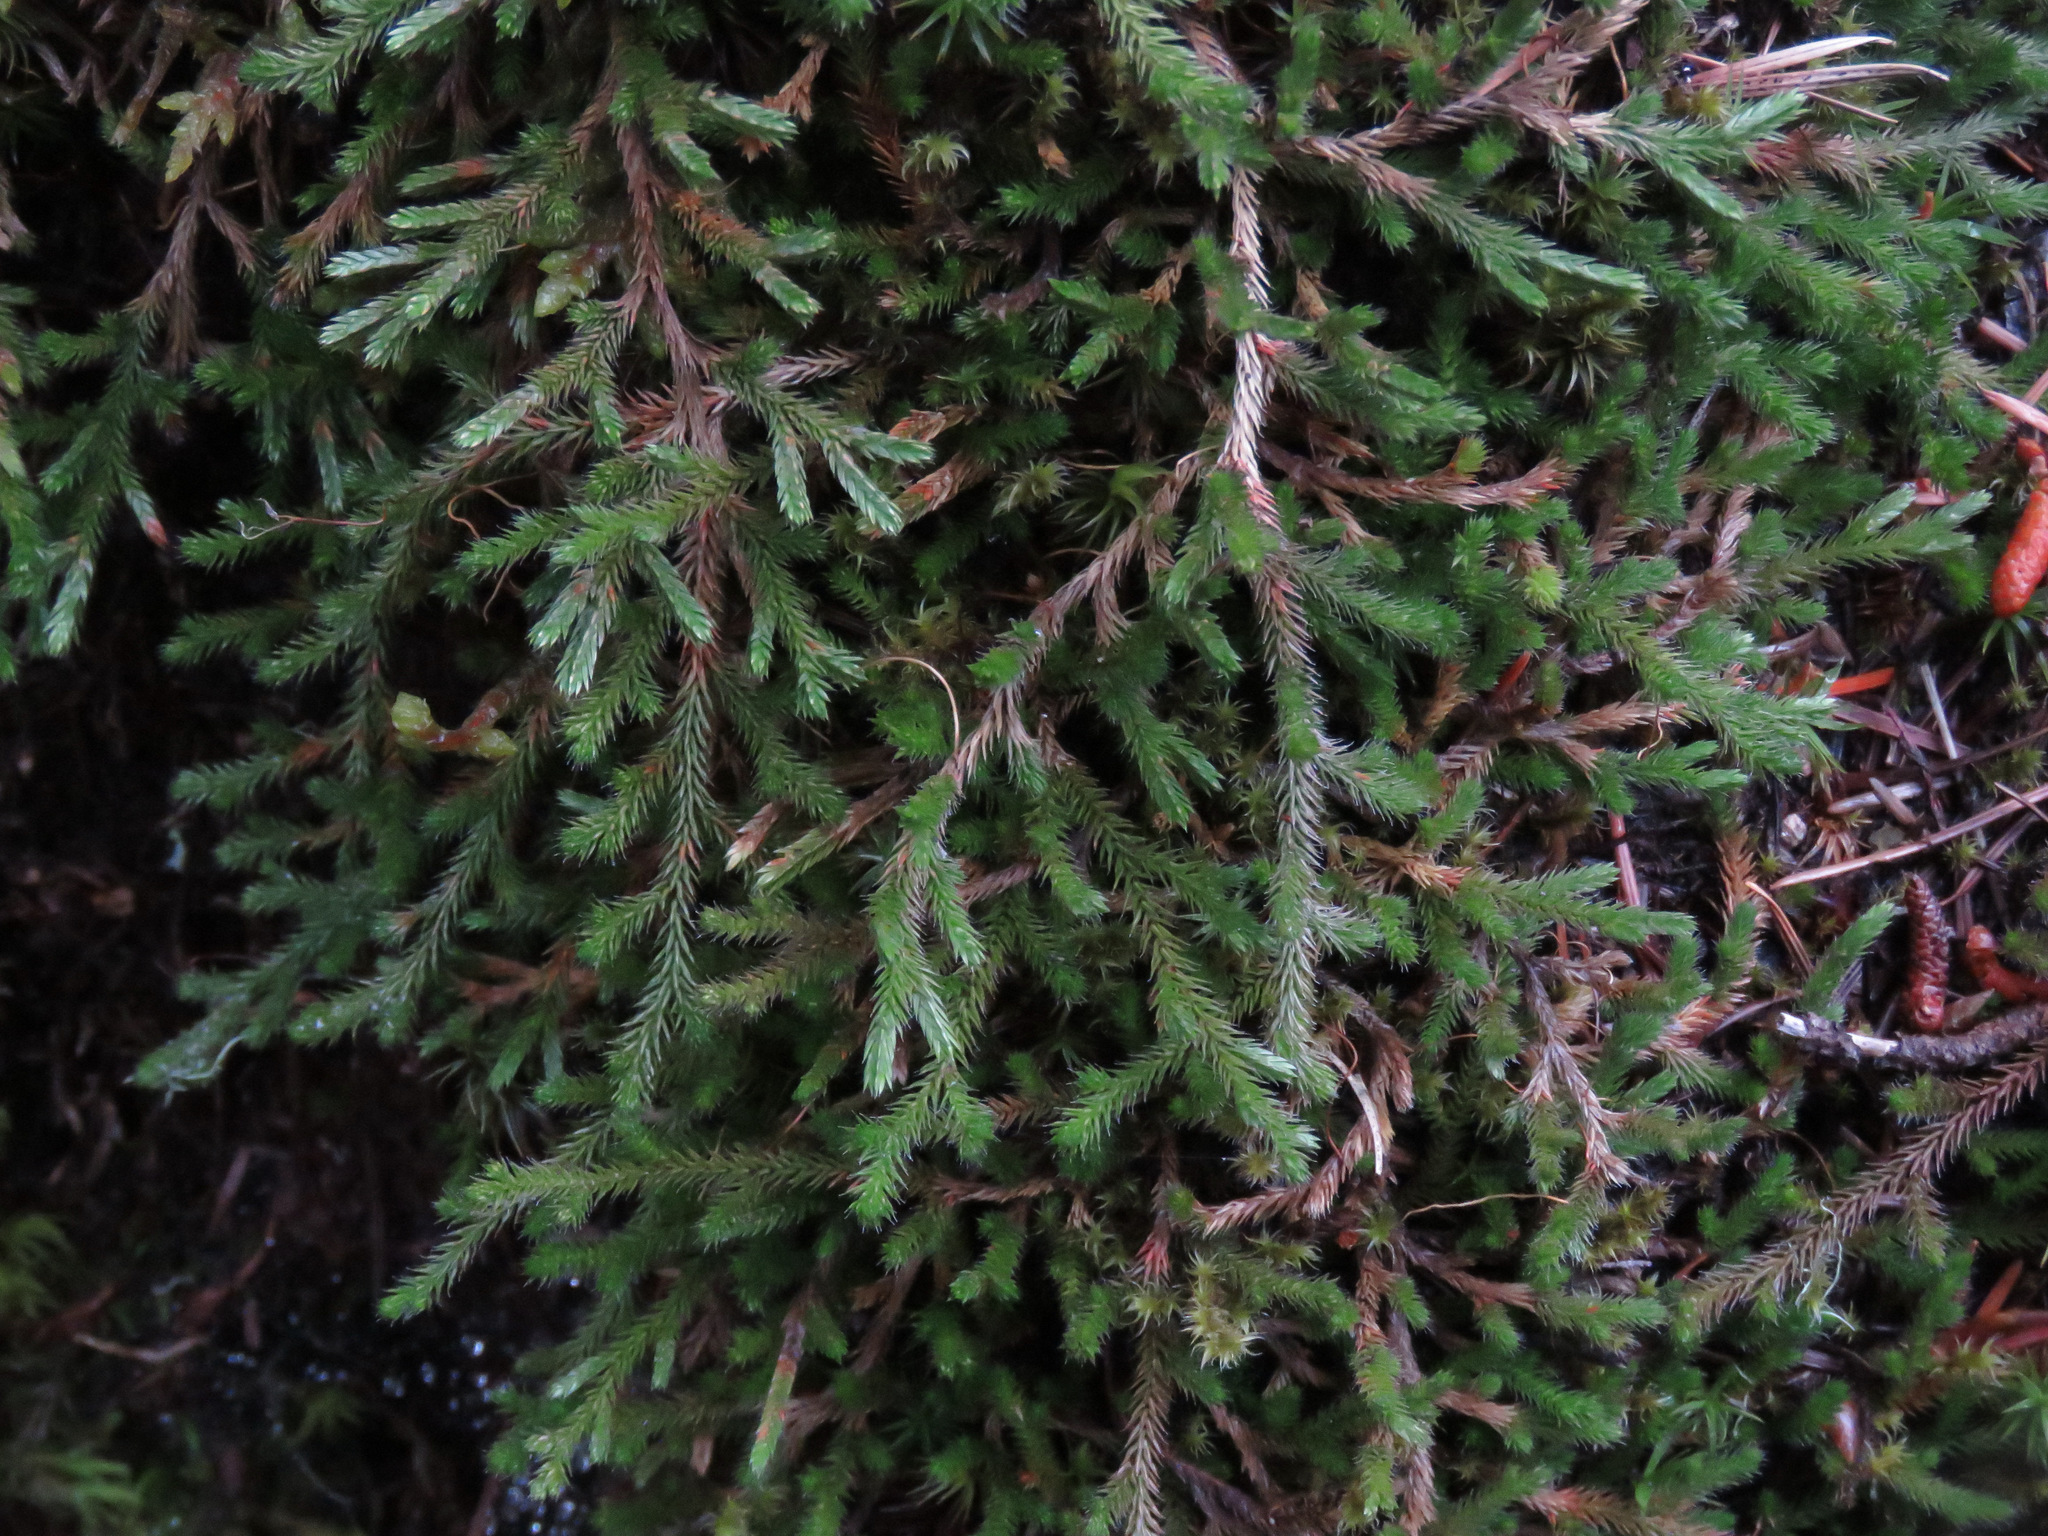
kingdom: Plantae
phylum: Tracheophyta
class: Lycopodiopsida
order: Selaginellales
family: Selaginellaceae
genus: Selaginella
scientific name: Selaginella wallacei
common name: Wallace's selaginella
